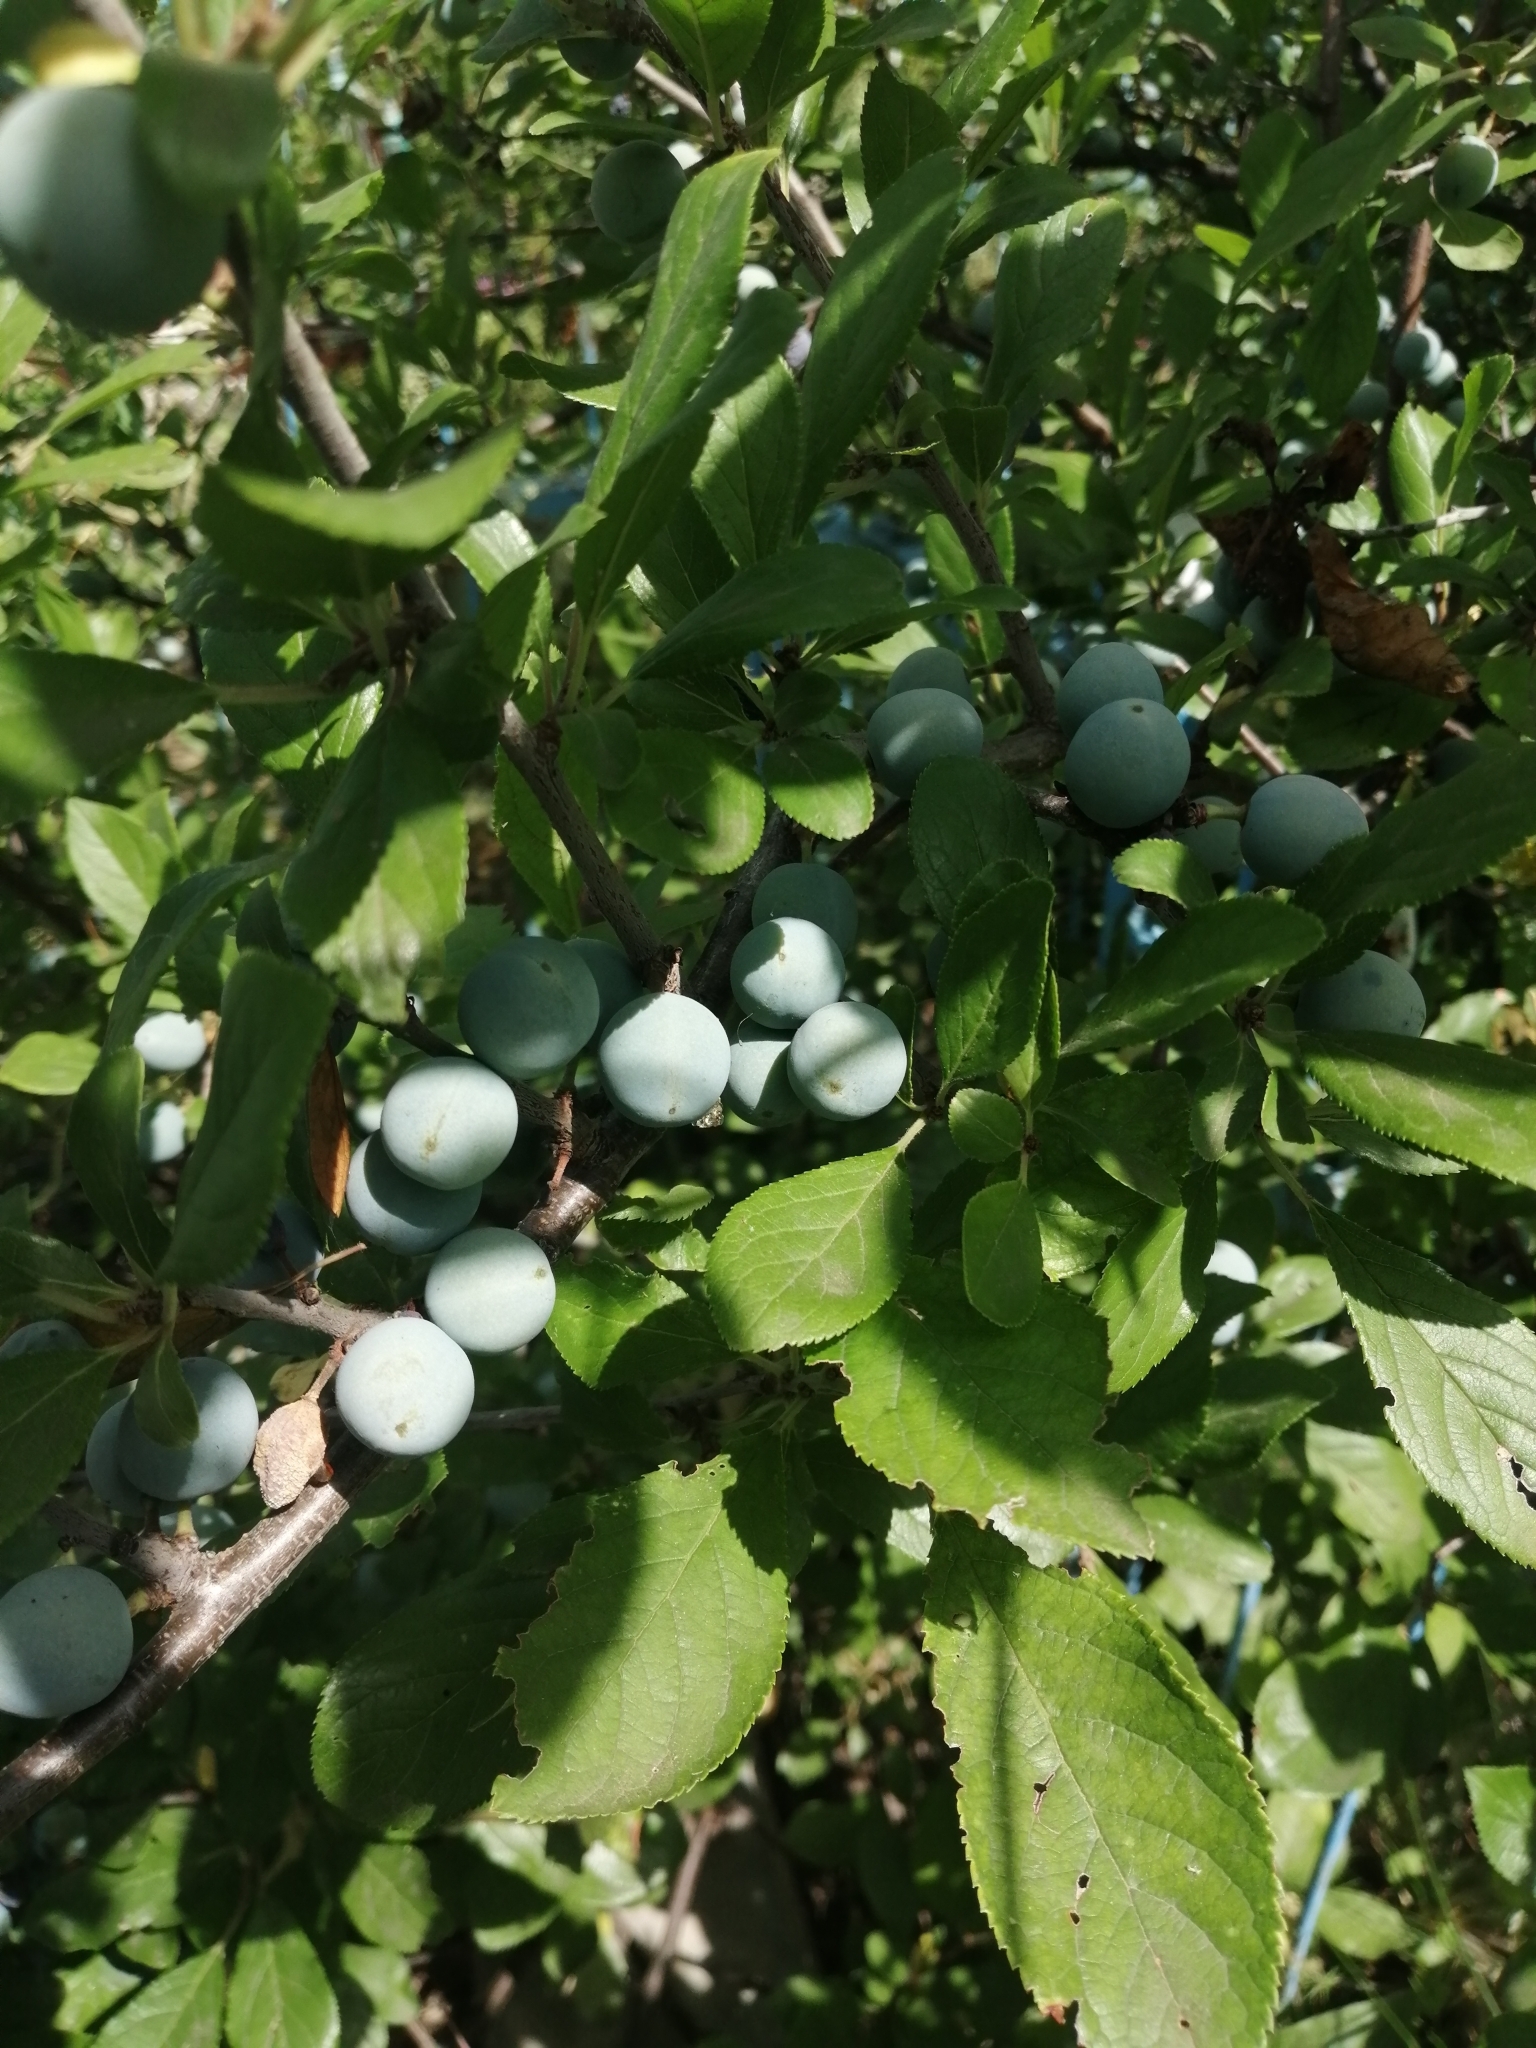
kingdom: Plantae
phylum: Tracheophyta
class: Magnoliopsida
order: Rosales
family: Rosaceae
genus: Prunus
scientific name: Prunus spinosa
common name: Blackthorn
